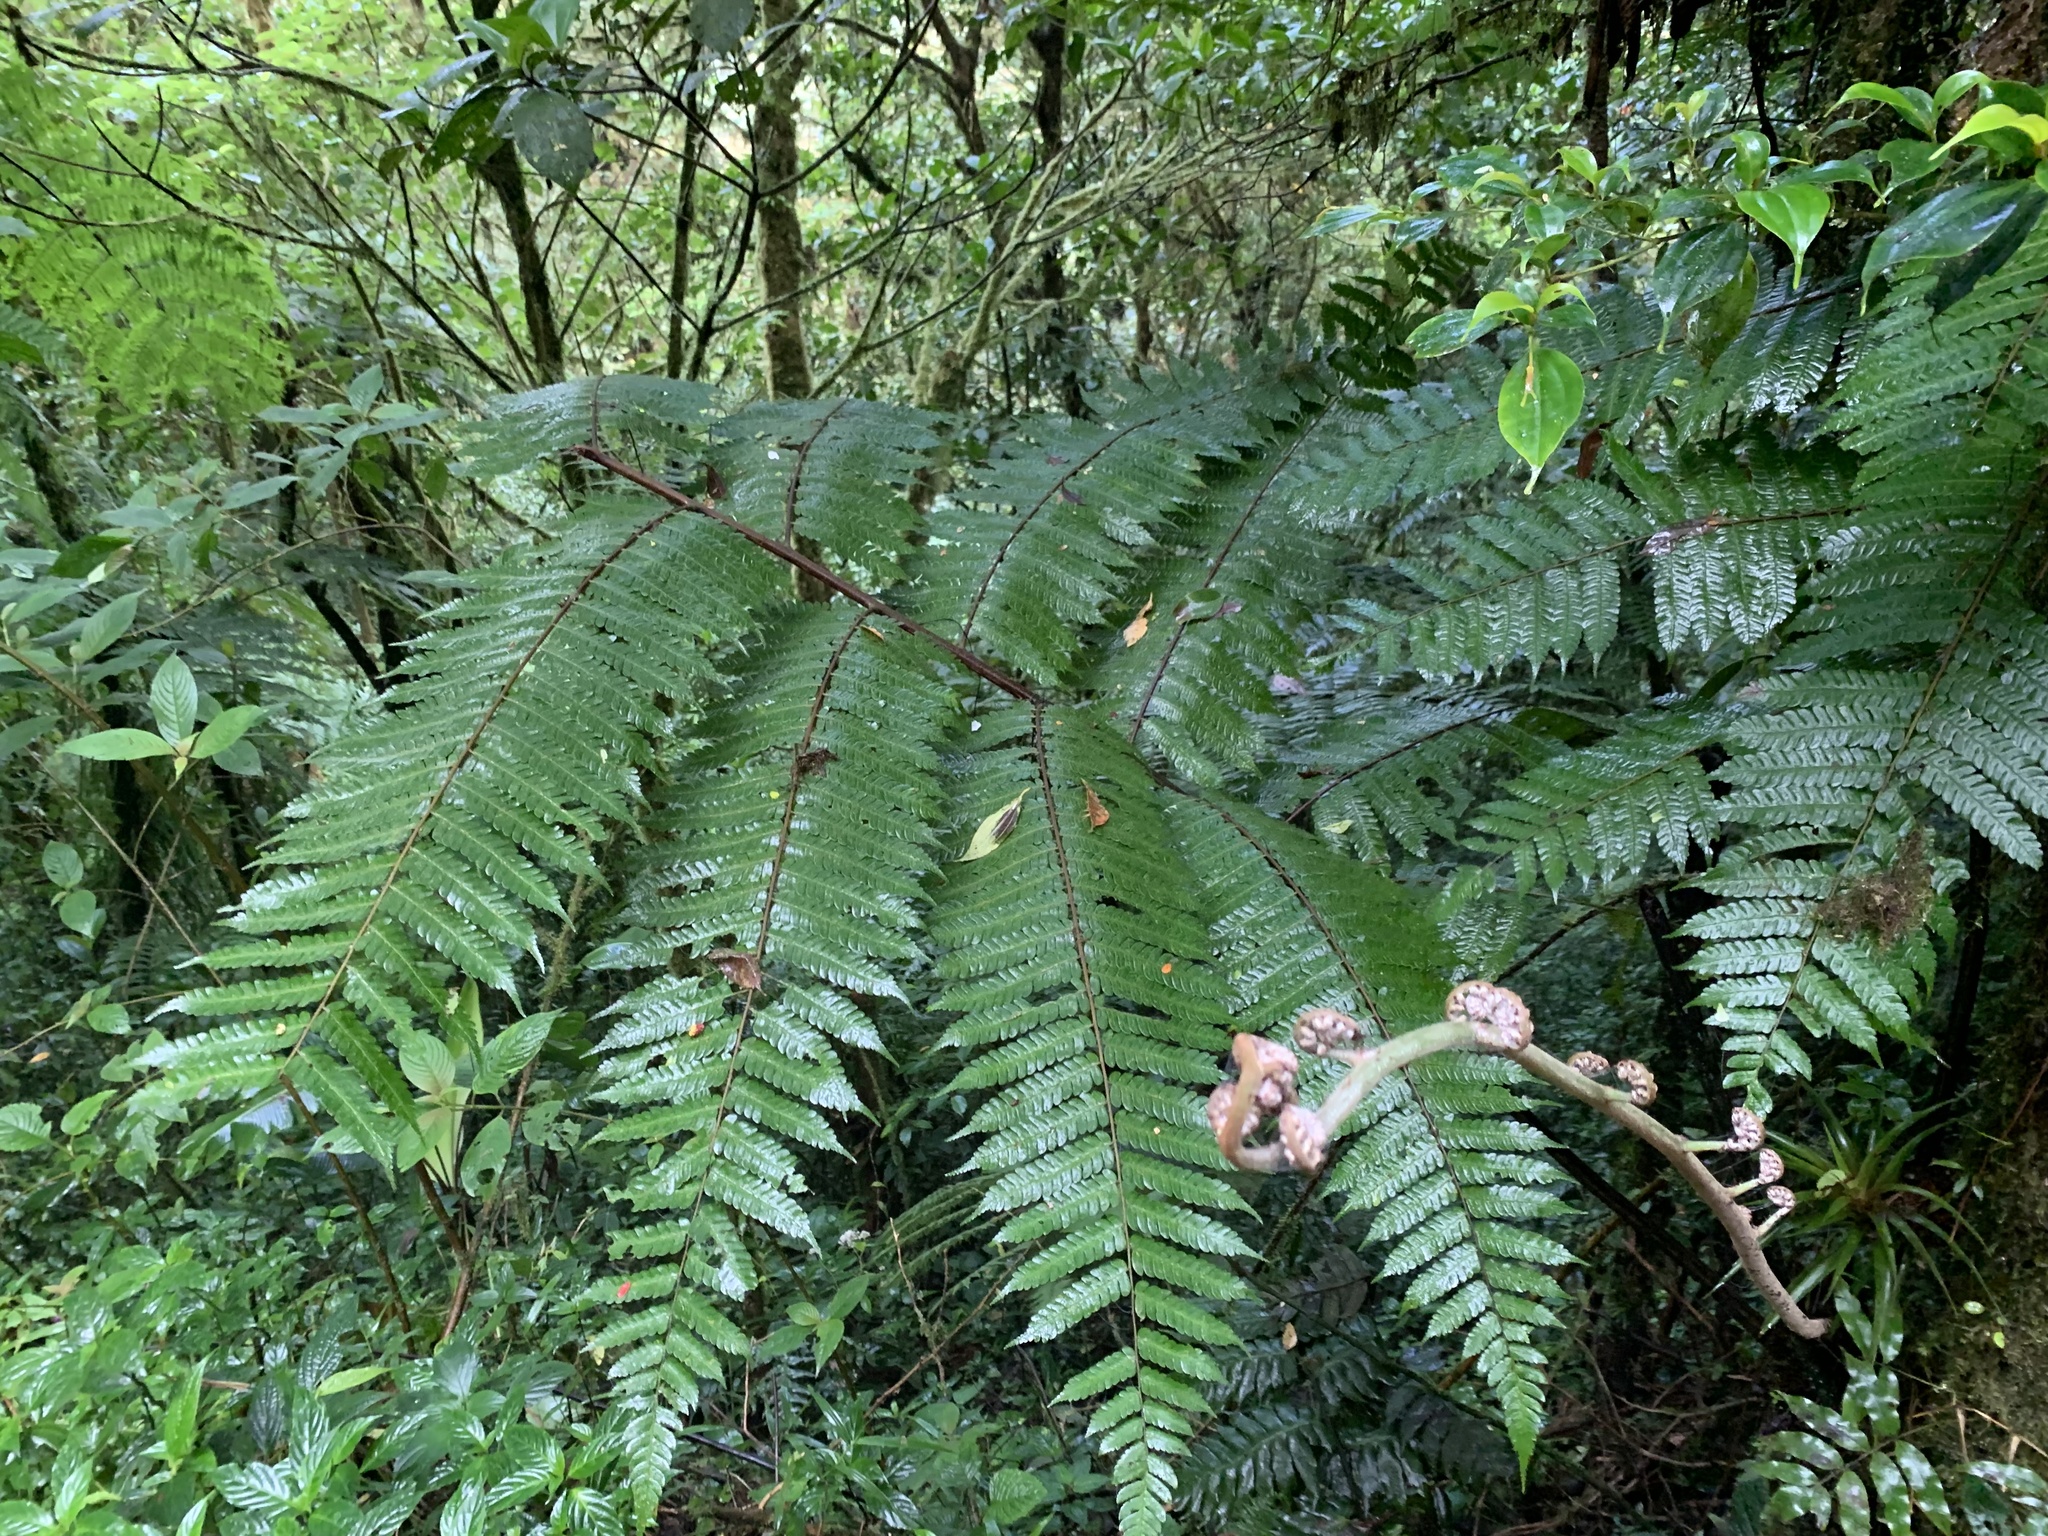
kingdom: Plantae
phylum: Tracheophyta
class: Polypodiopsida
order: Cyatheales
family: Dicksoniaceae
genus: Lophosoria
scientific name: Lophosoria quadripinnata
